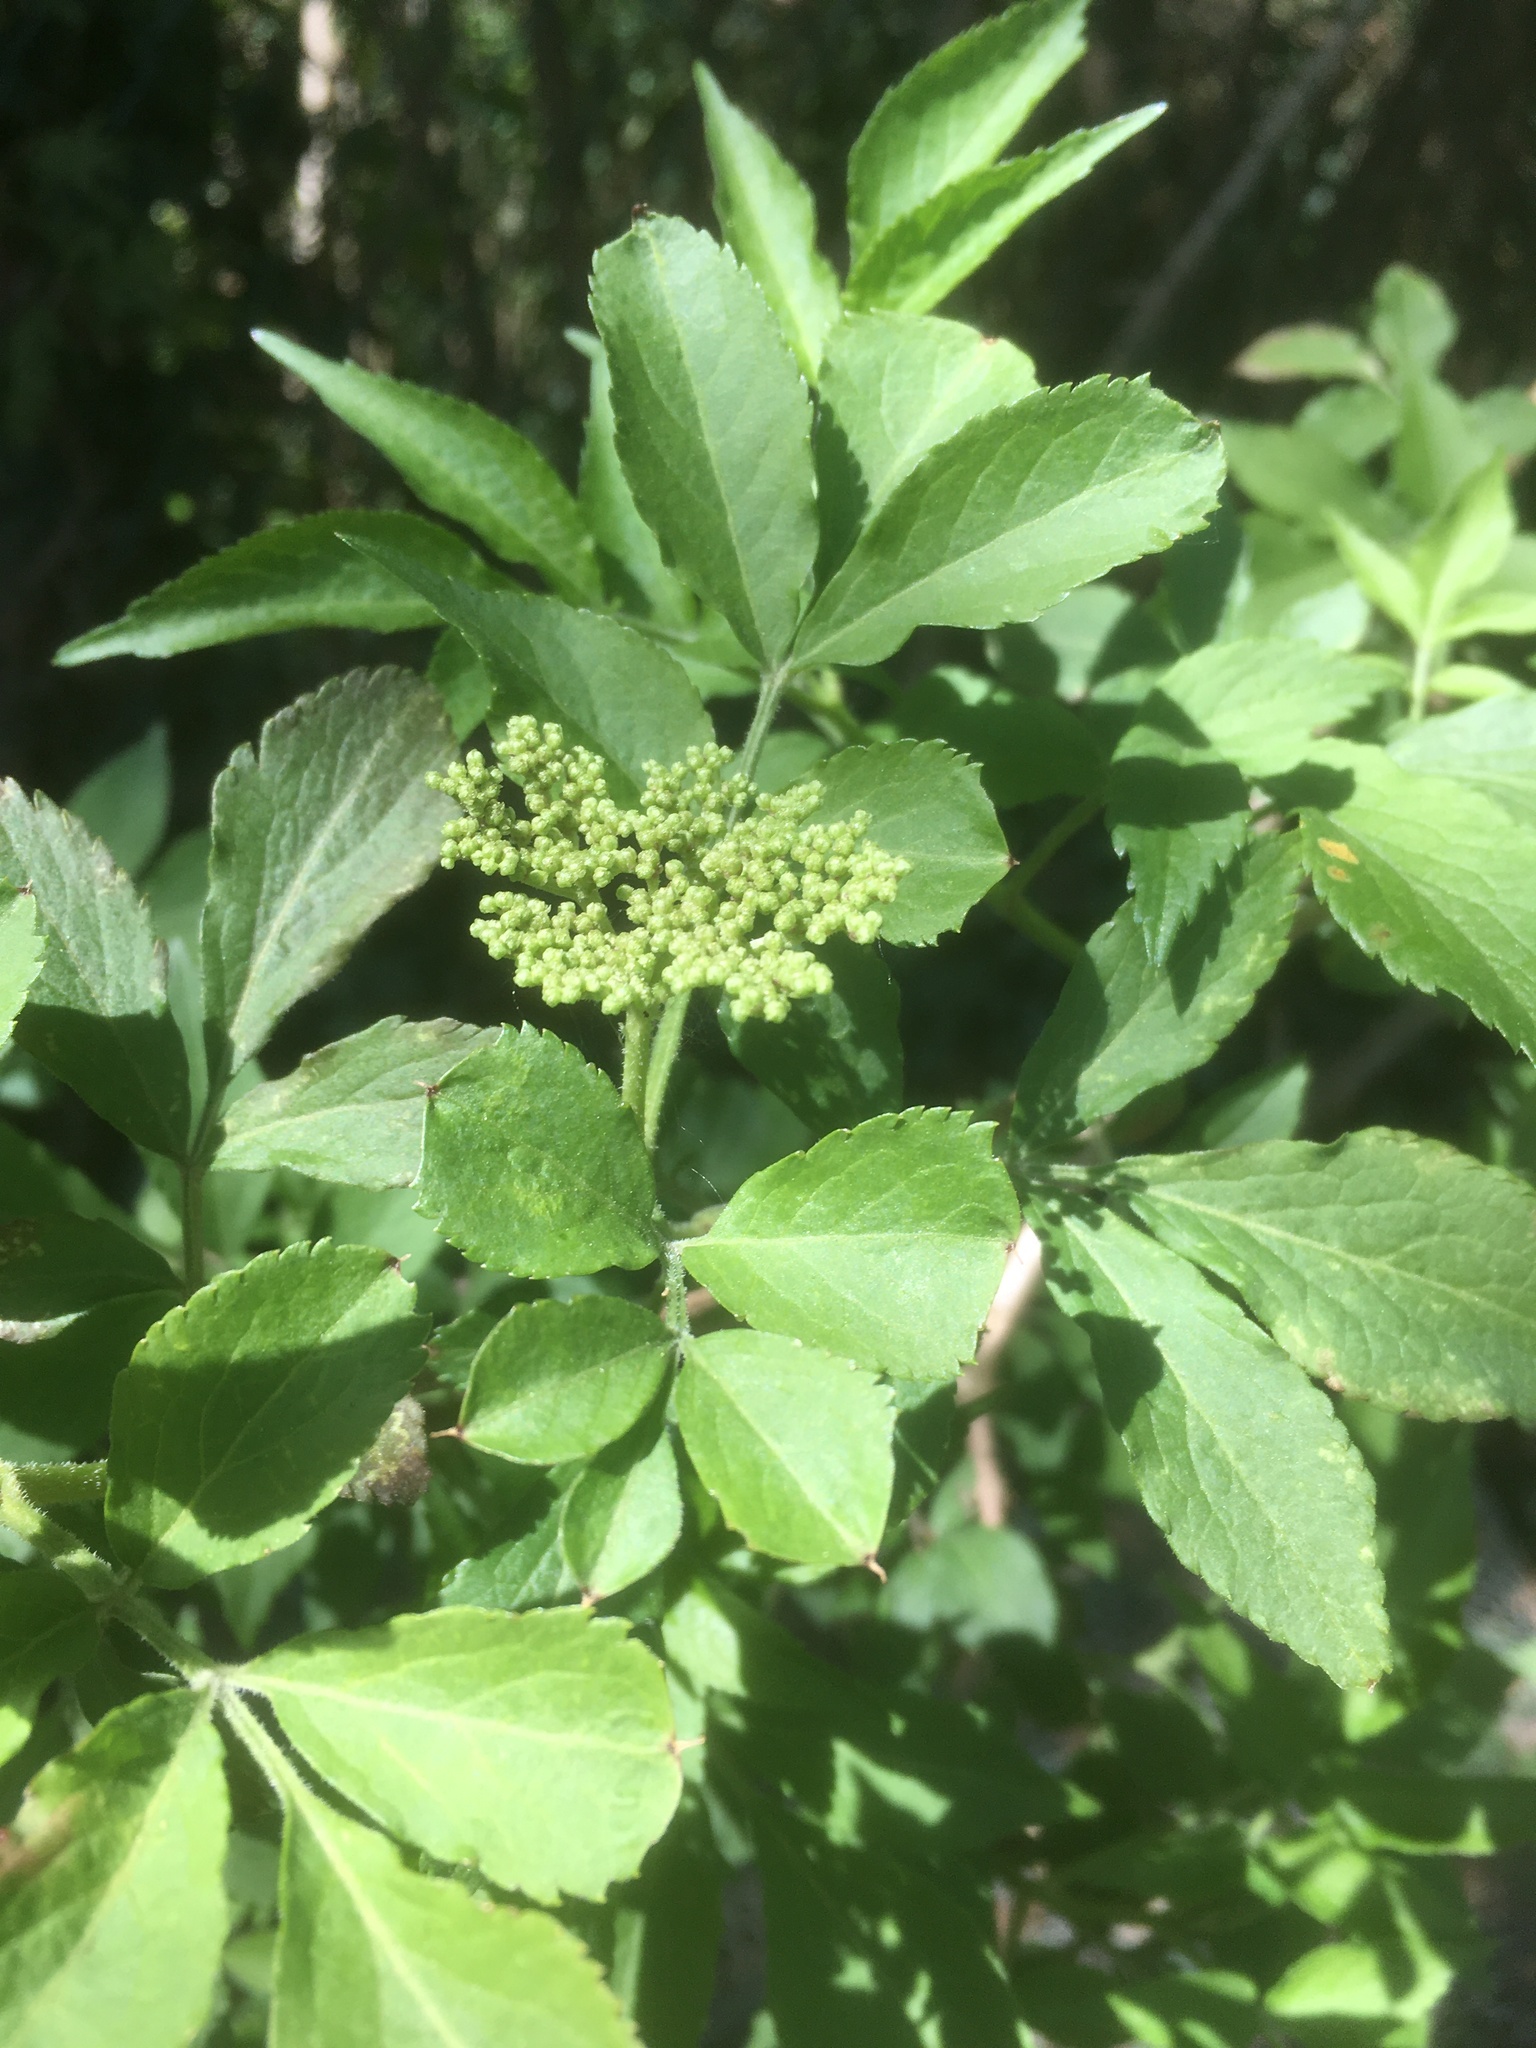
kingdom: Plantae
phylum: Tracheophyta
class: Magnoliopsida
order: Dipsacales
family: Viburnaceae
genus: Sambucus
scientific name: Sambucus nigra
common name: Elder
